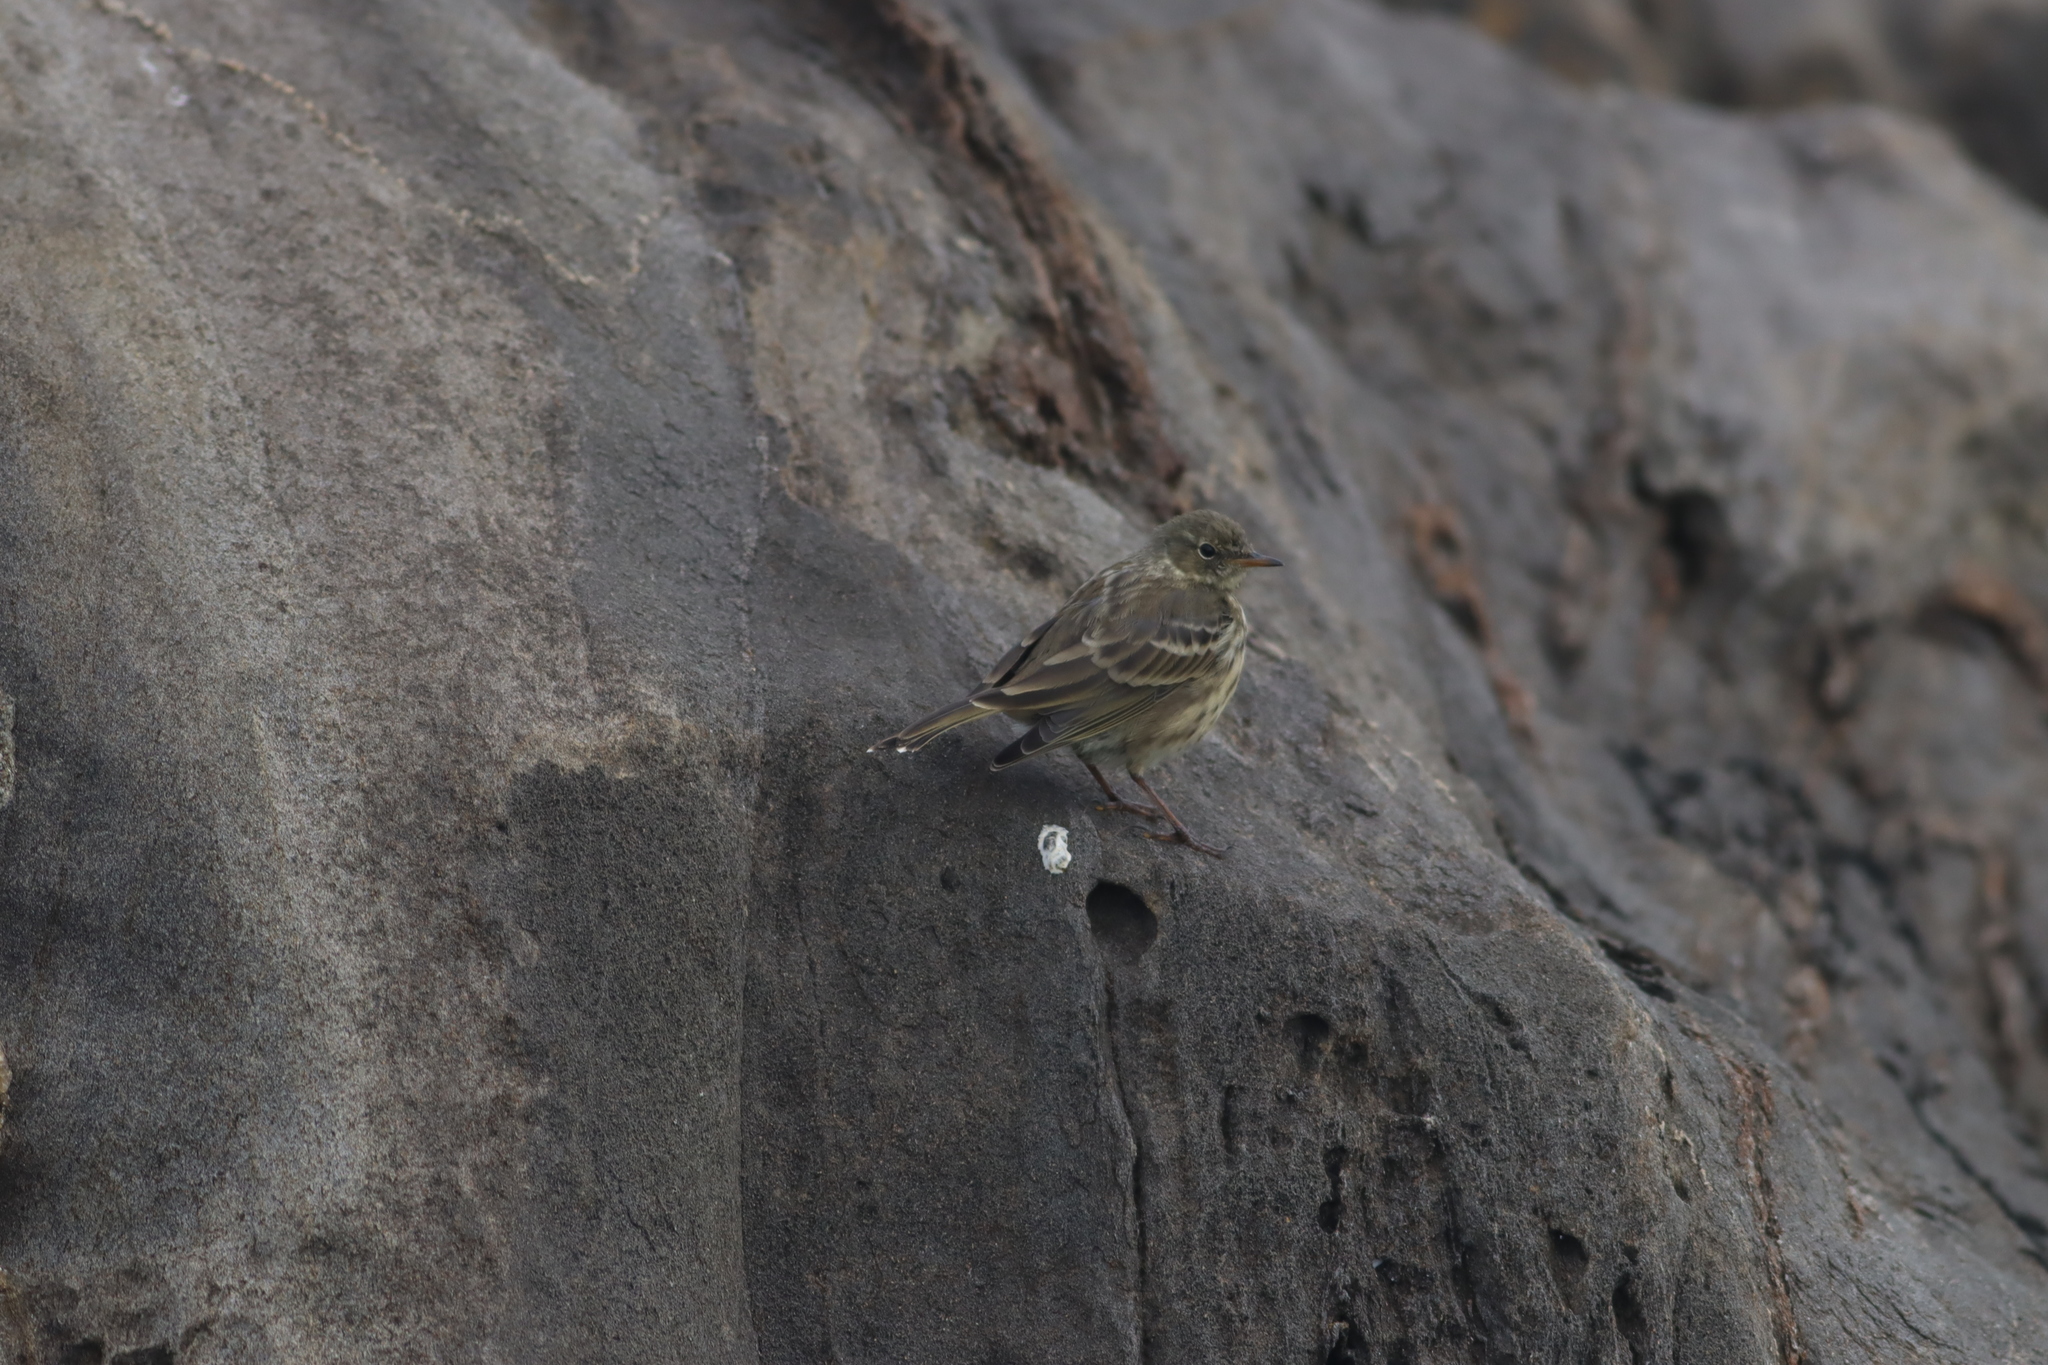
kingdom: Animalia
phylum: Chordata
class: Aves
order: Passeriformes
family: Motacillidae
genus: Anthus
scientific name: Anthus petrosus
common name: Eurasian rock pipit
